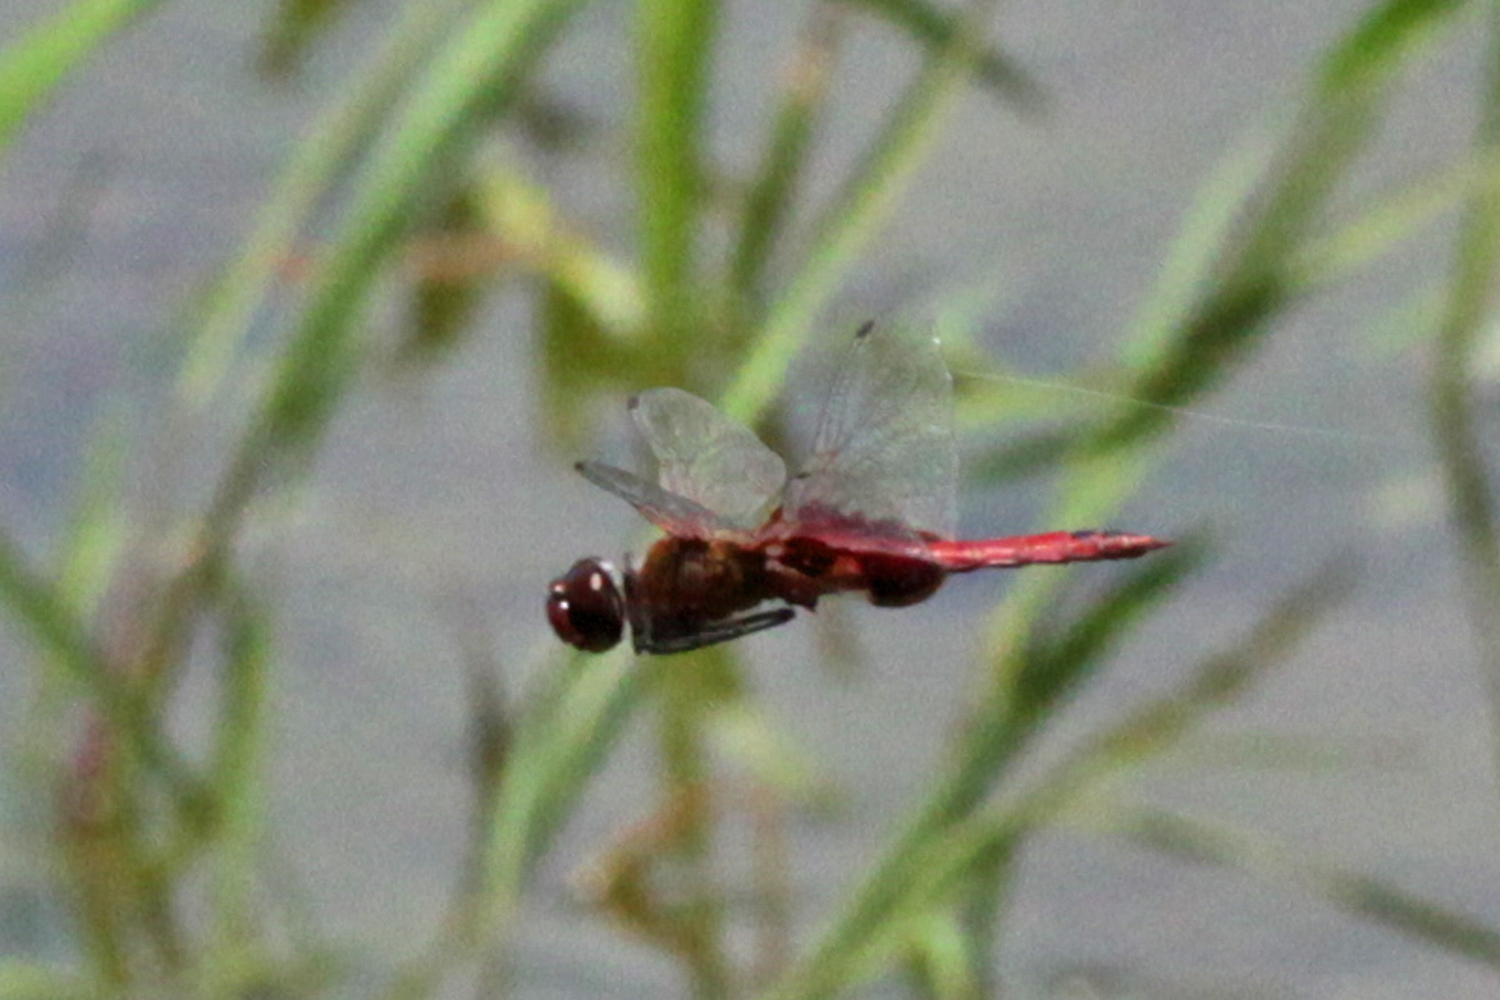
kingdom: Animalia
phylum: Arthropoda
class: Insecta
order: Odonata
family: Libellulidae
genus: Tramea
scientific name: Tramea onusta
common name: Red saddlebags
